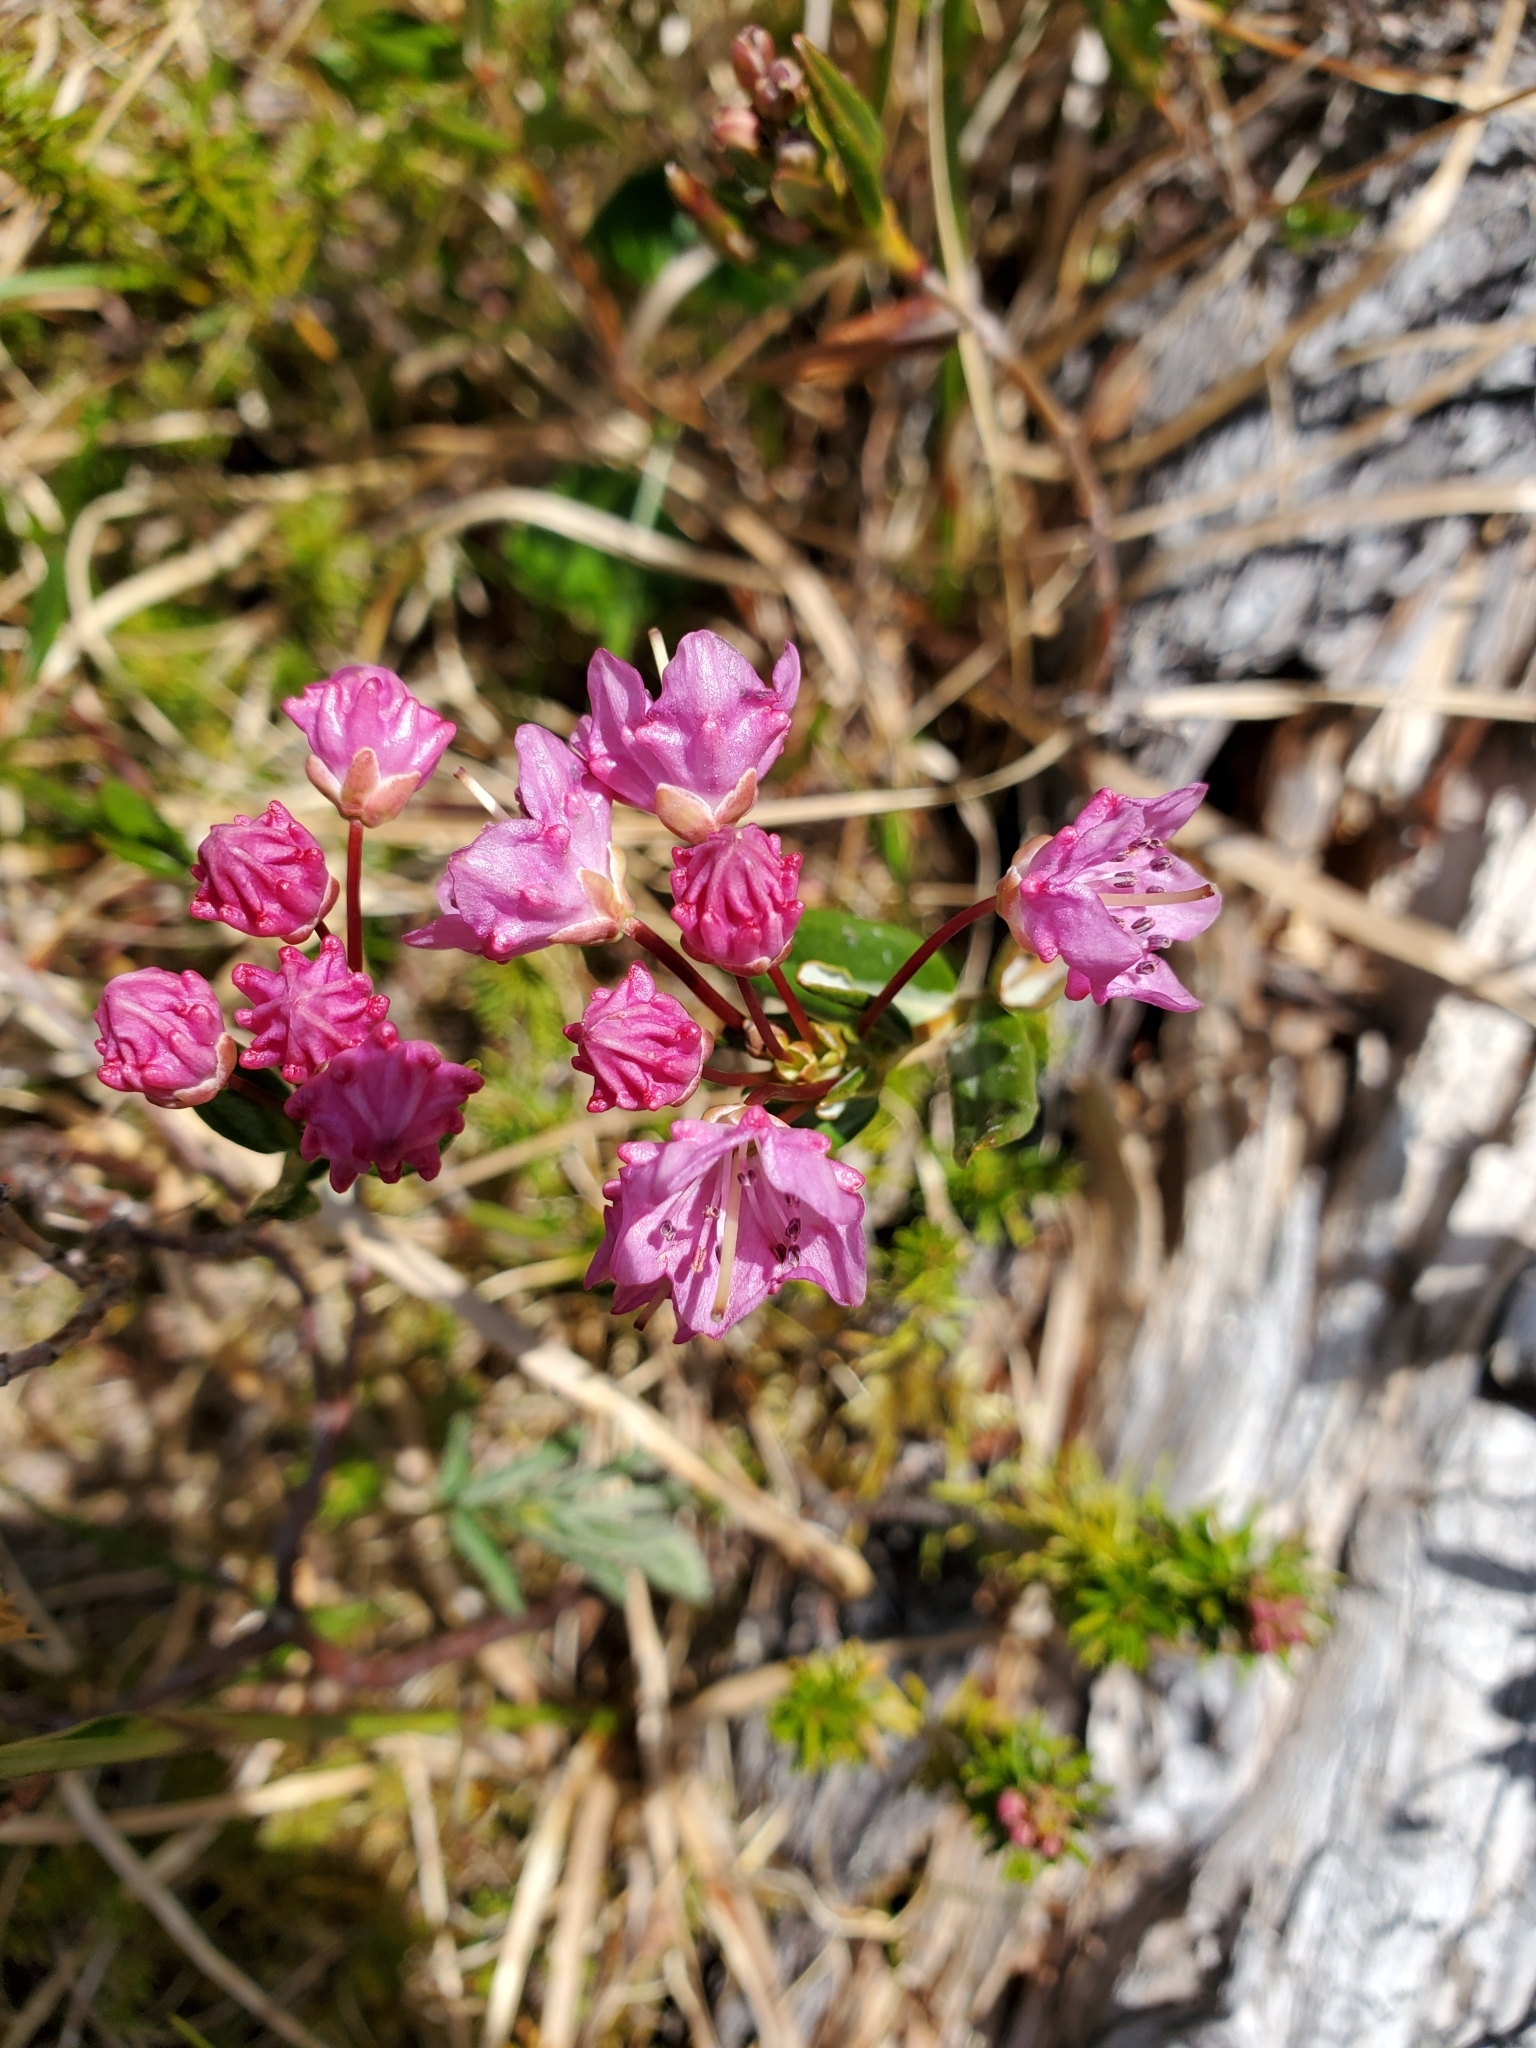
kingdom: Plantae
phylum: Tracheophyta
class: Magnoliopsida
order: Ericales
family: Ericaceae
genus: Kalmia
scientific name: Kalmia microphylla
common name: Alpine bog laurel
